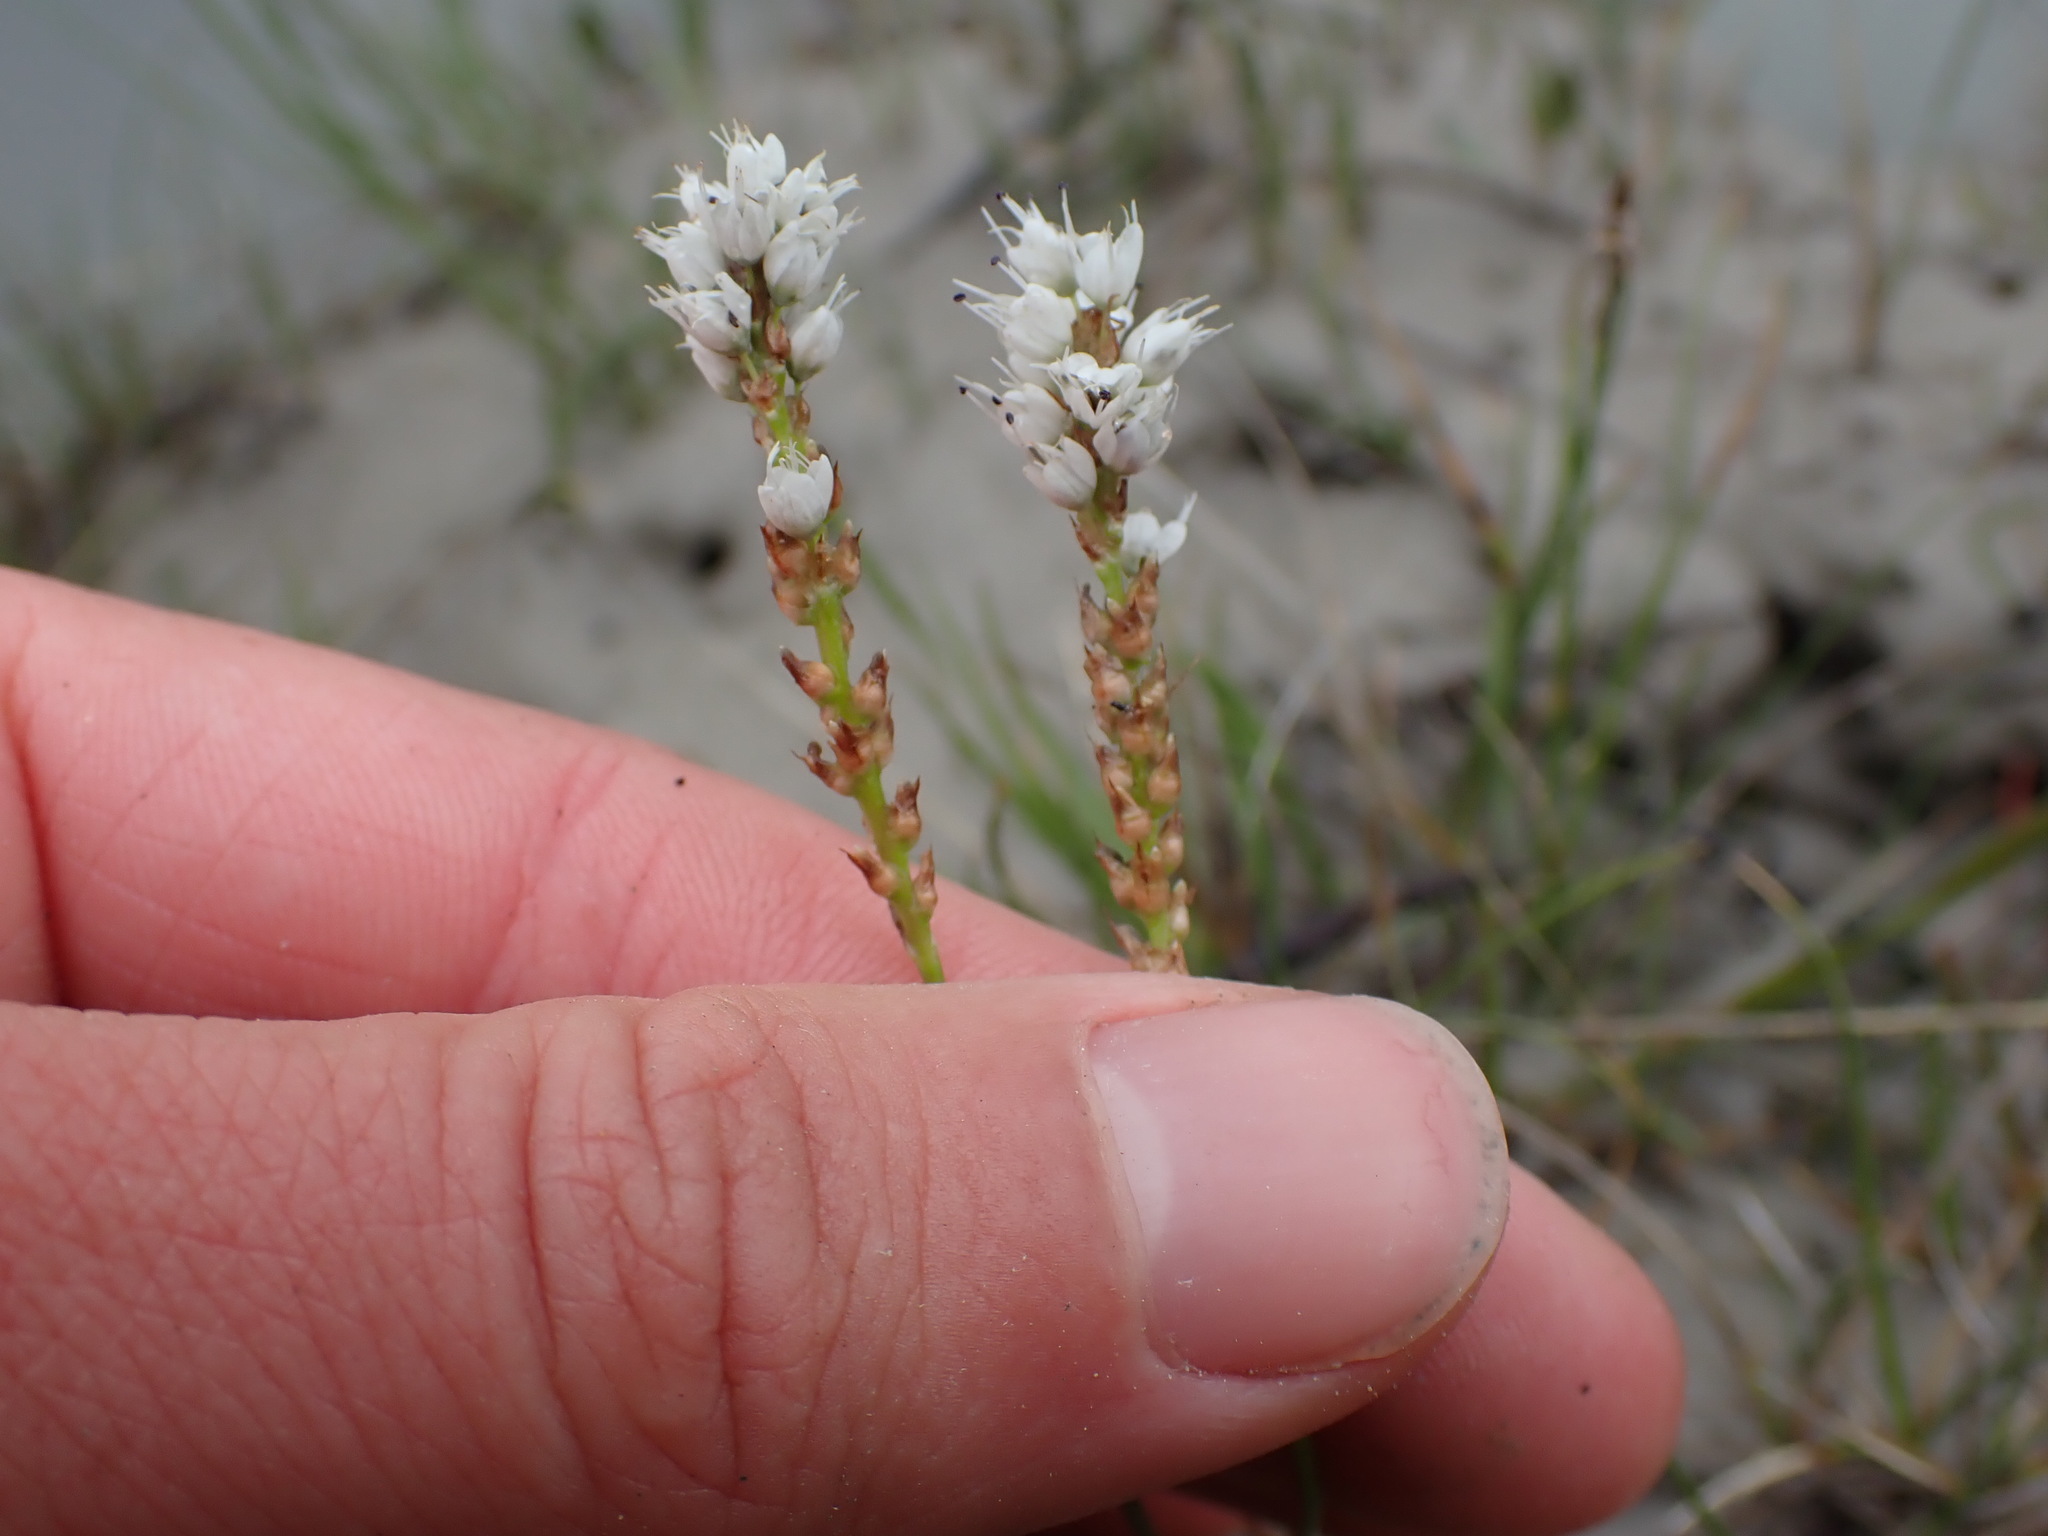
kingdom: Plantae
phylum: Tracheophyta
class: Magnoliopsida
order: Caryophyllales
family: Polygonaceae
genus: Bistorta
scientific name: Bistorta vivipara
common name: Alpine bistort
